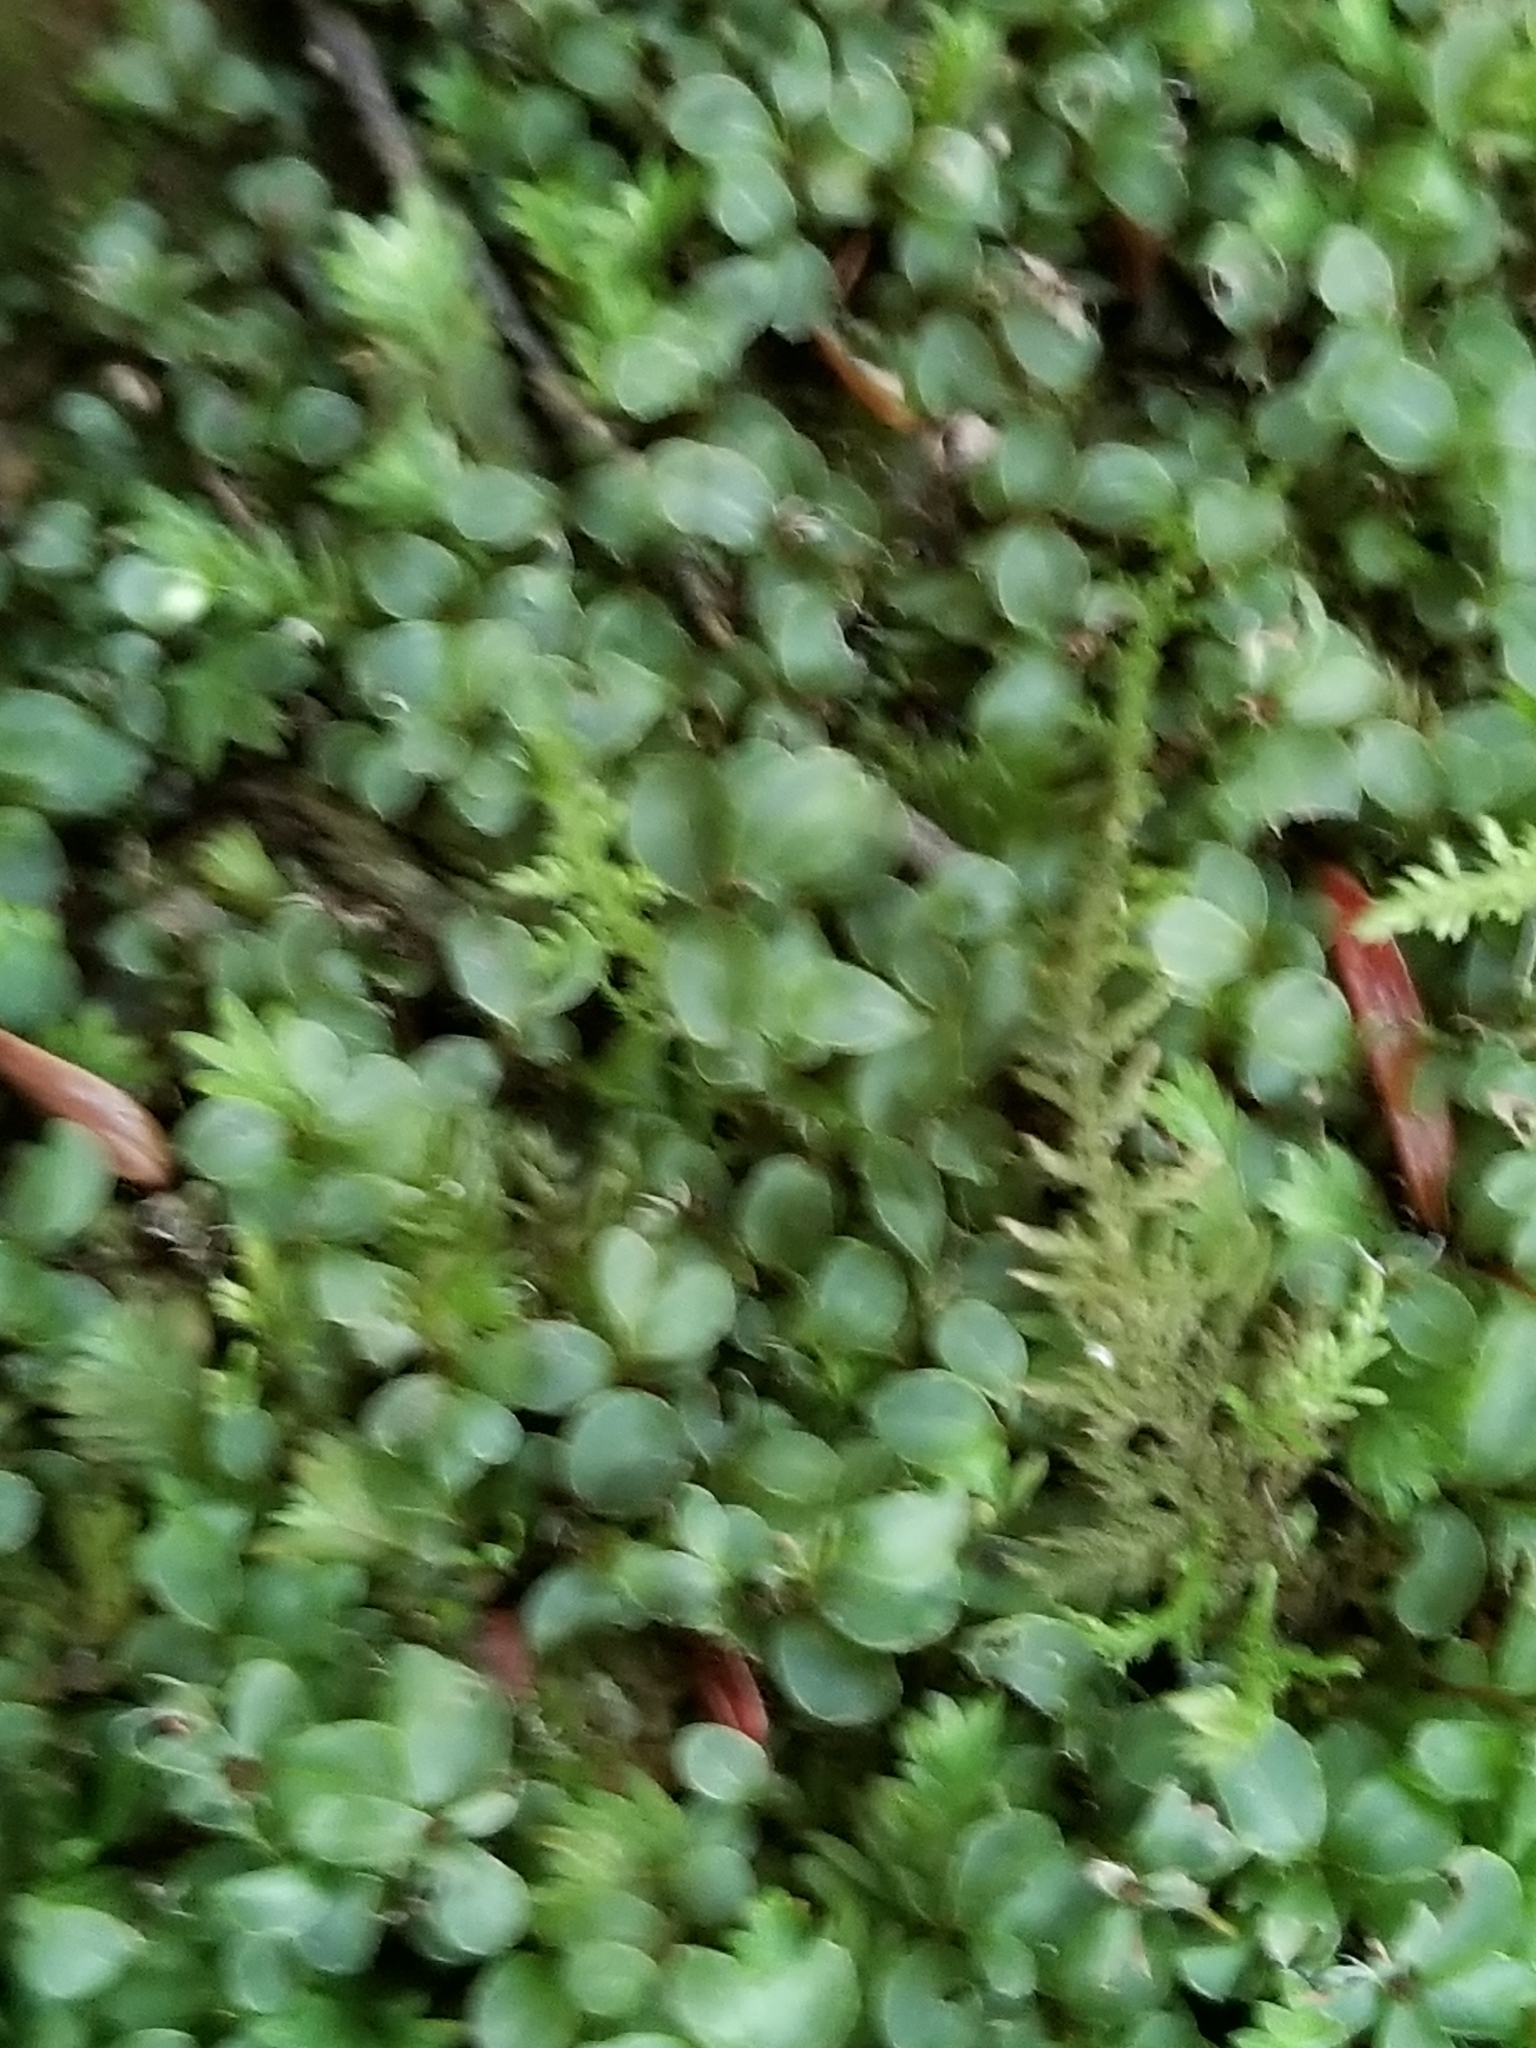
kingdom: Plantae
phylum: Bryophyta
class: Bryopsida
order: Bryales
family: Mniaceae
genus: Rhizomnium
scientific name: Rhizomnium punctatum
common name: Dotted leafy moss
